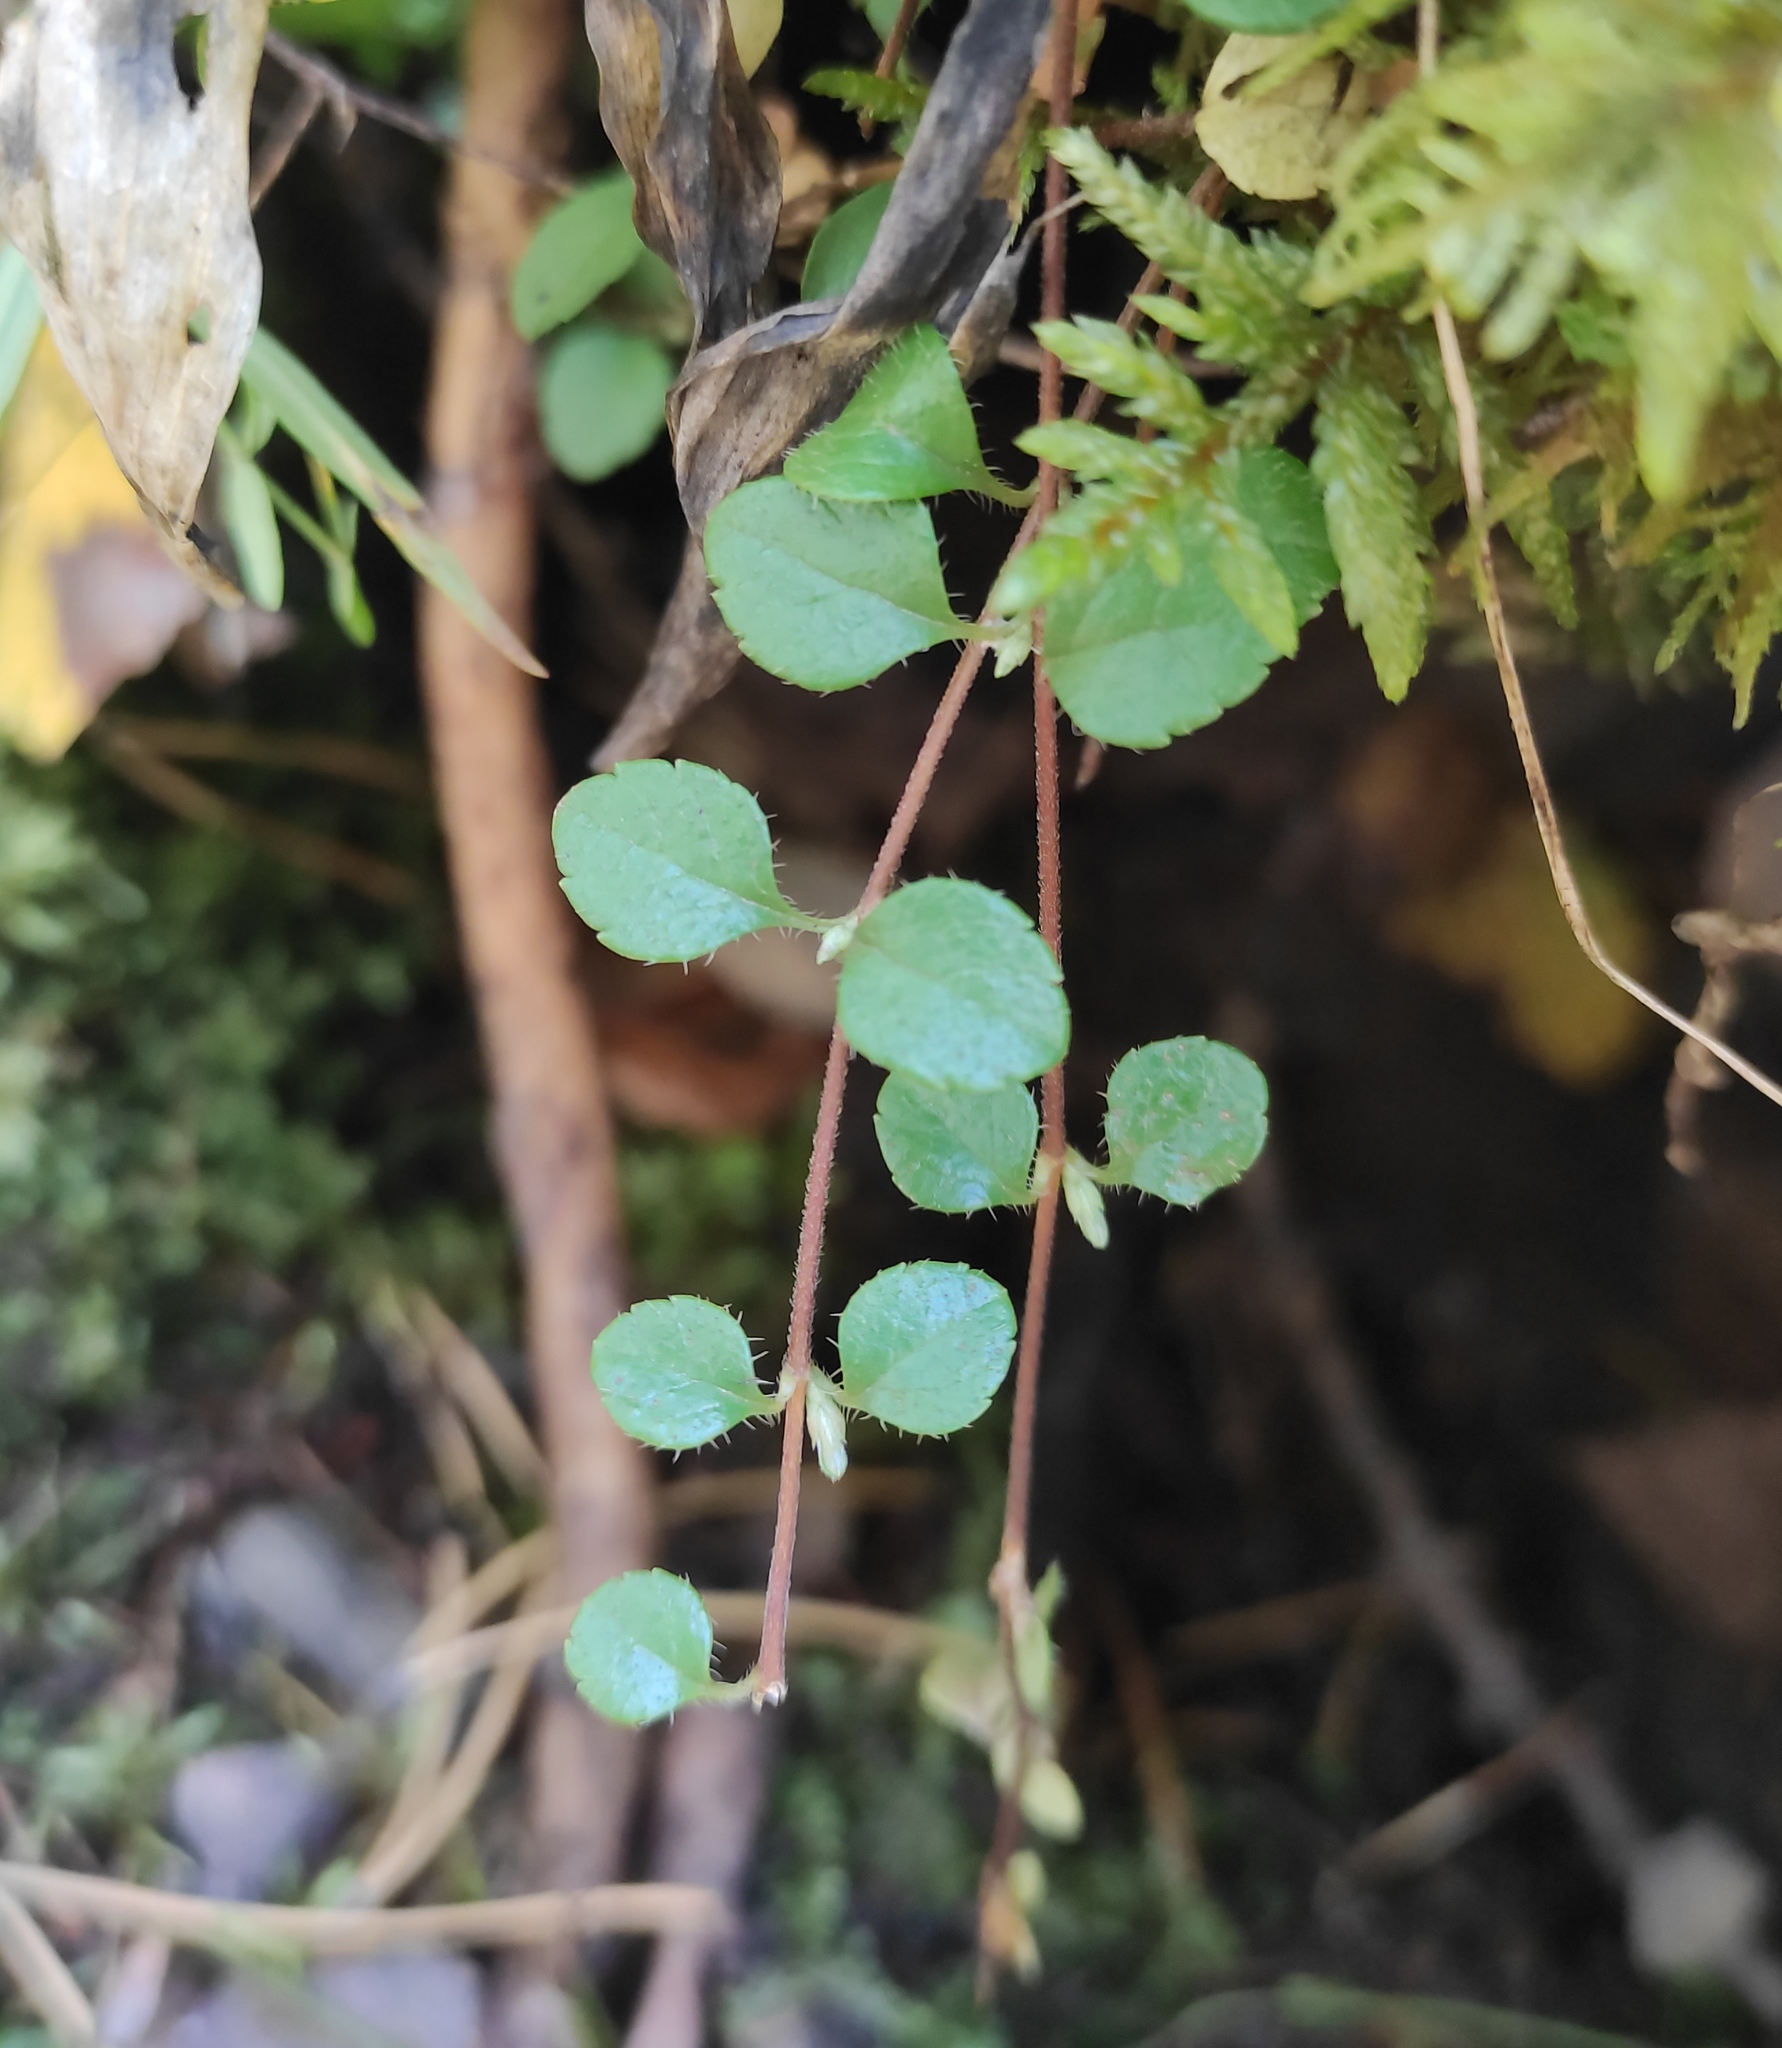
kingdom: Plantae
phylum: Tracheophyta
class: Magnoliopsida
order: Dipsacales
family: Caprifoliaceae
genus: Linnaea
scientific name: Linnaea borealis
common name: Twinflower
